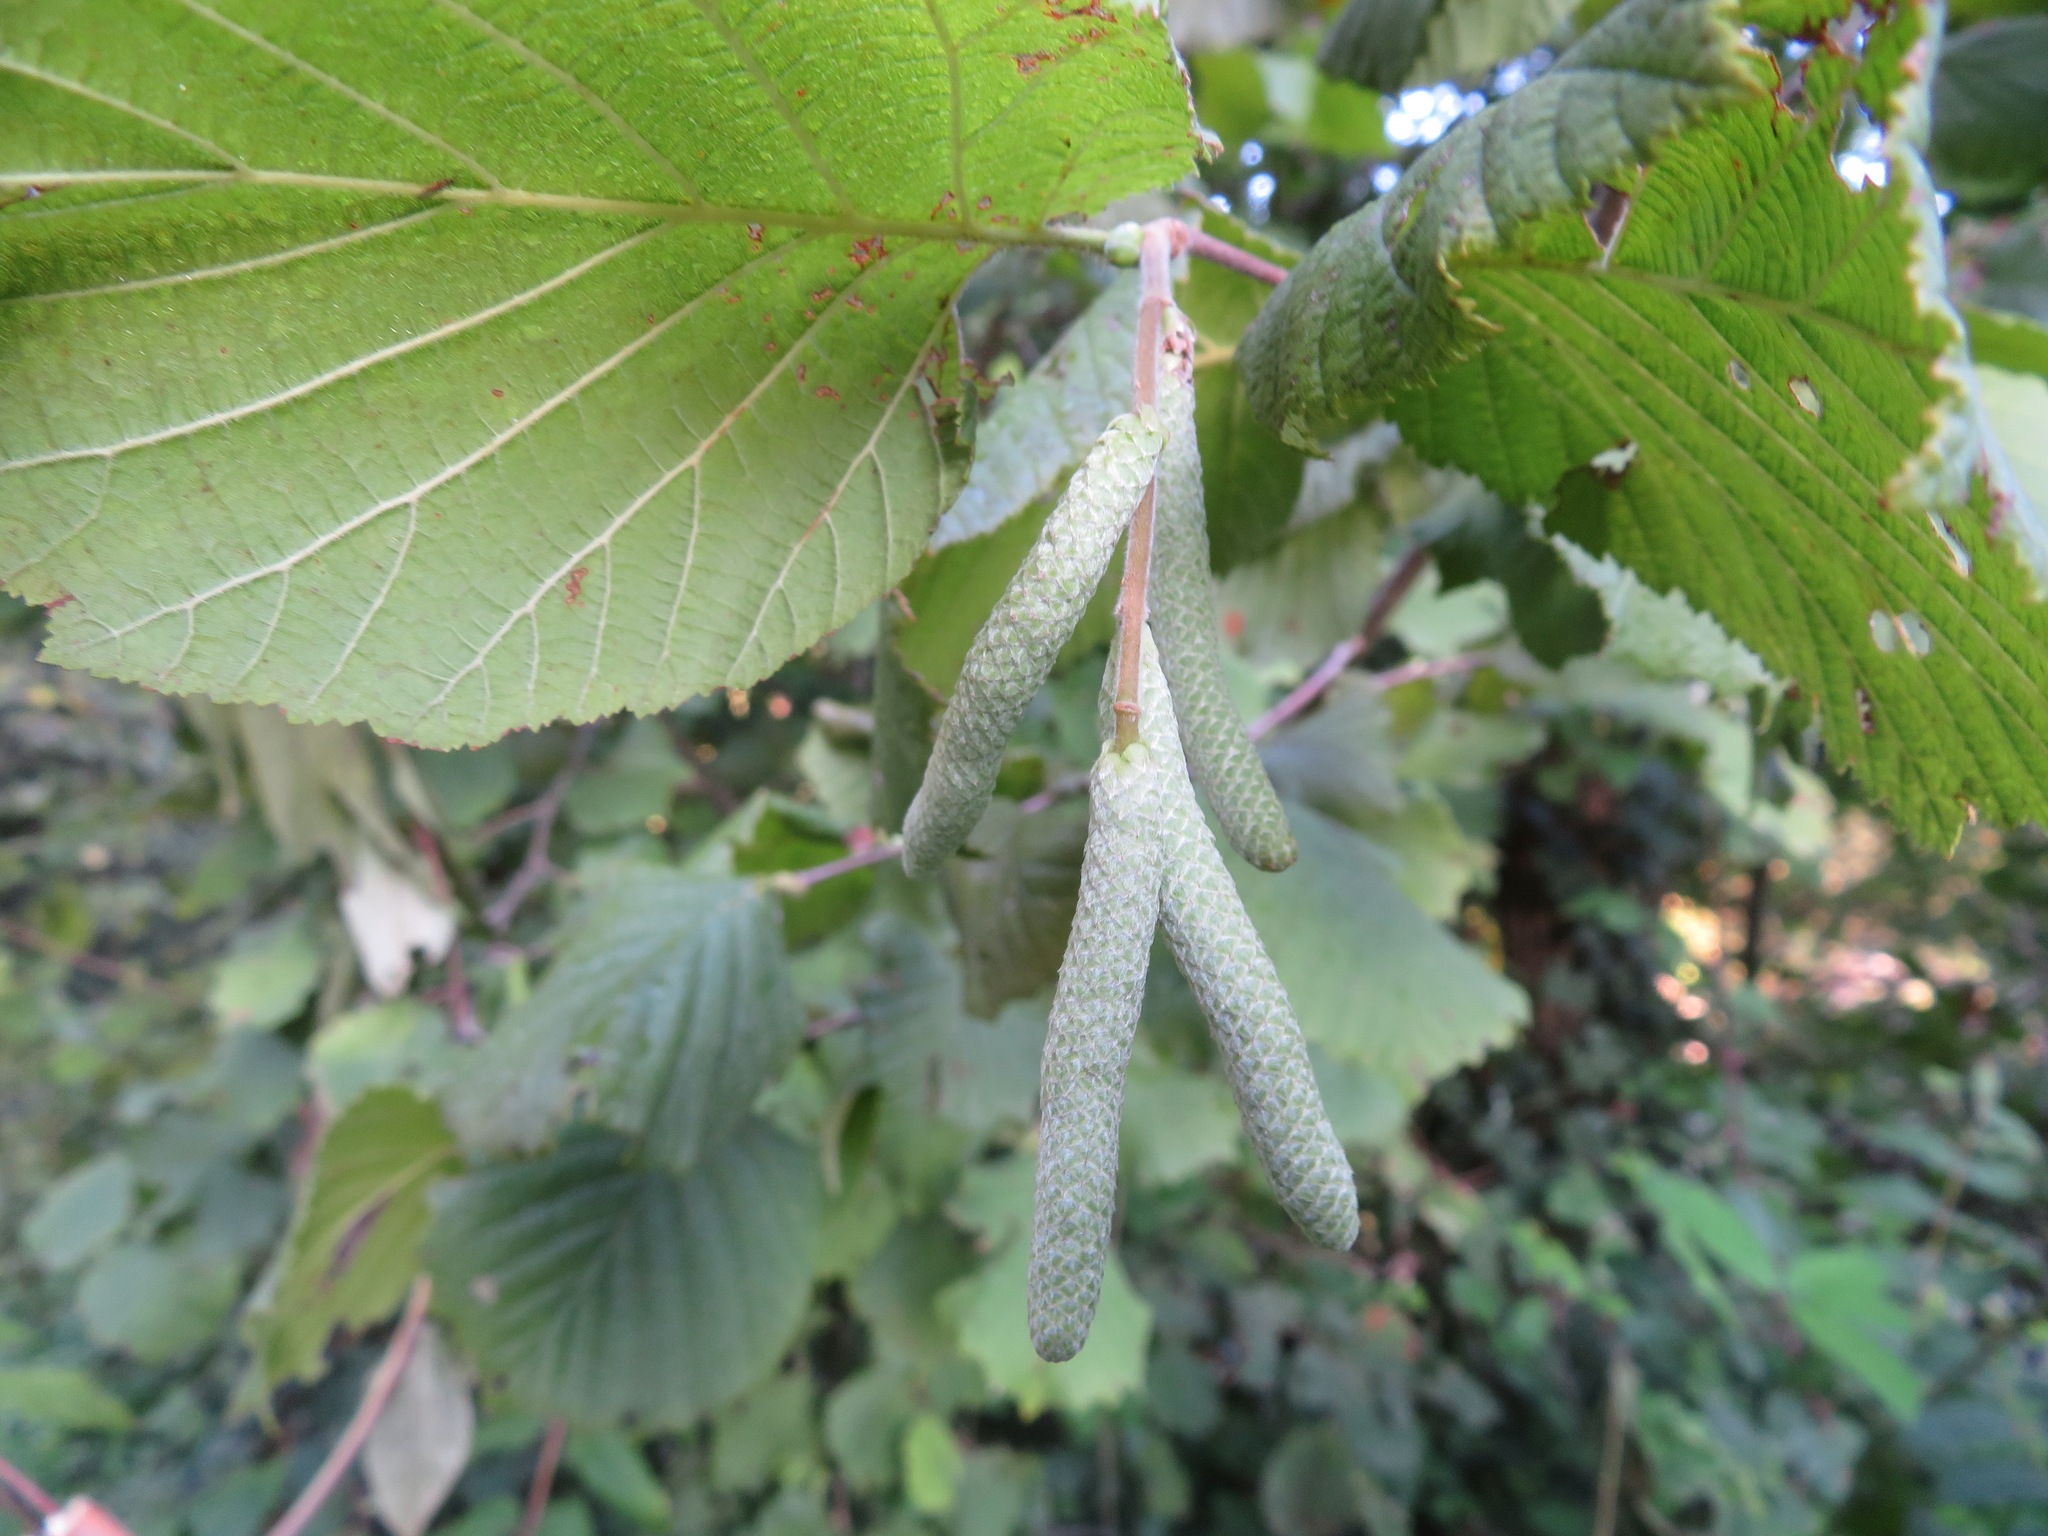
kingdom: Plantae
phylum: Tracheophyta
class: Magnoliopsida
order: Fagales
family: Betulaceae
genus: Corylus
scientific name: Corylus avellana
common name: European hazel
